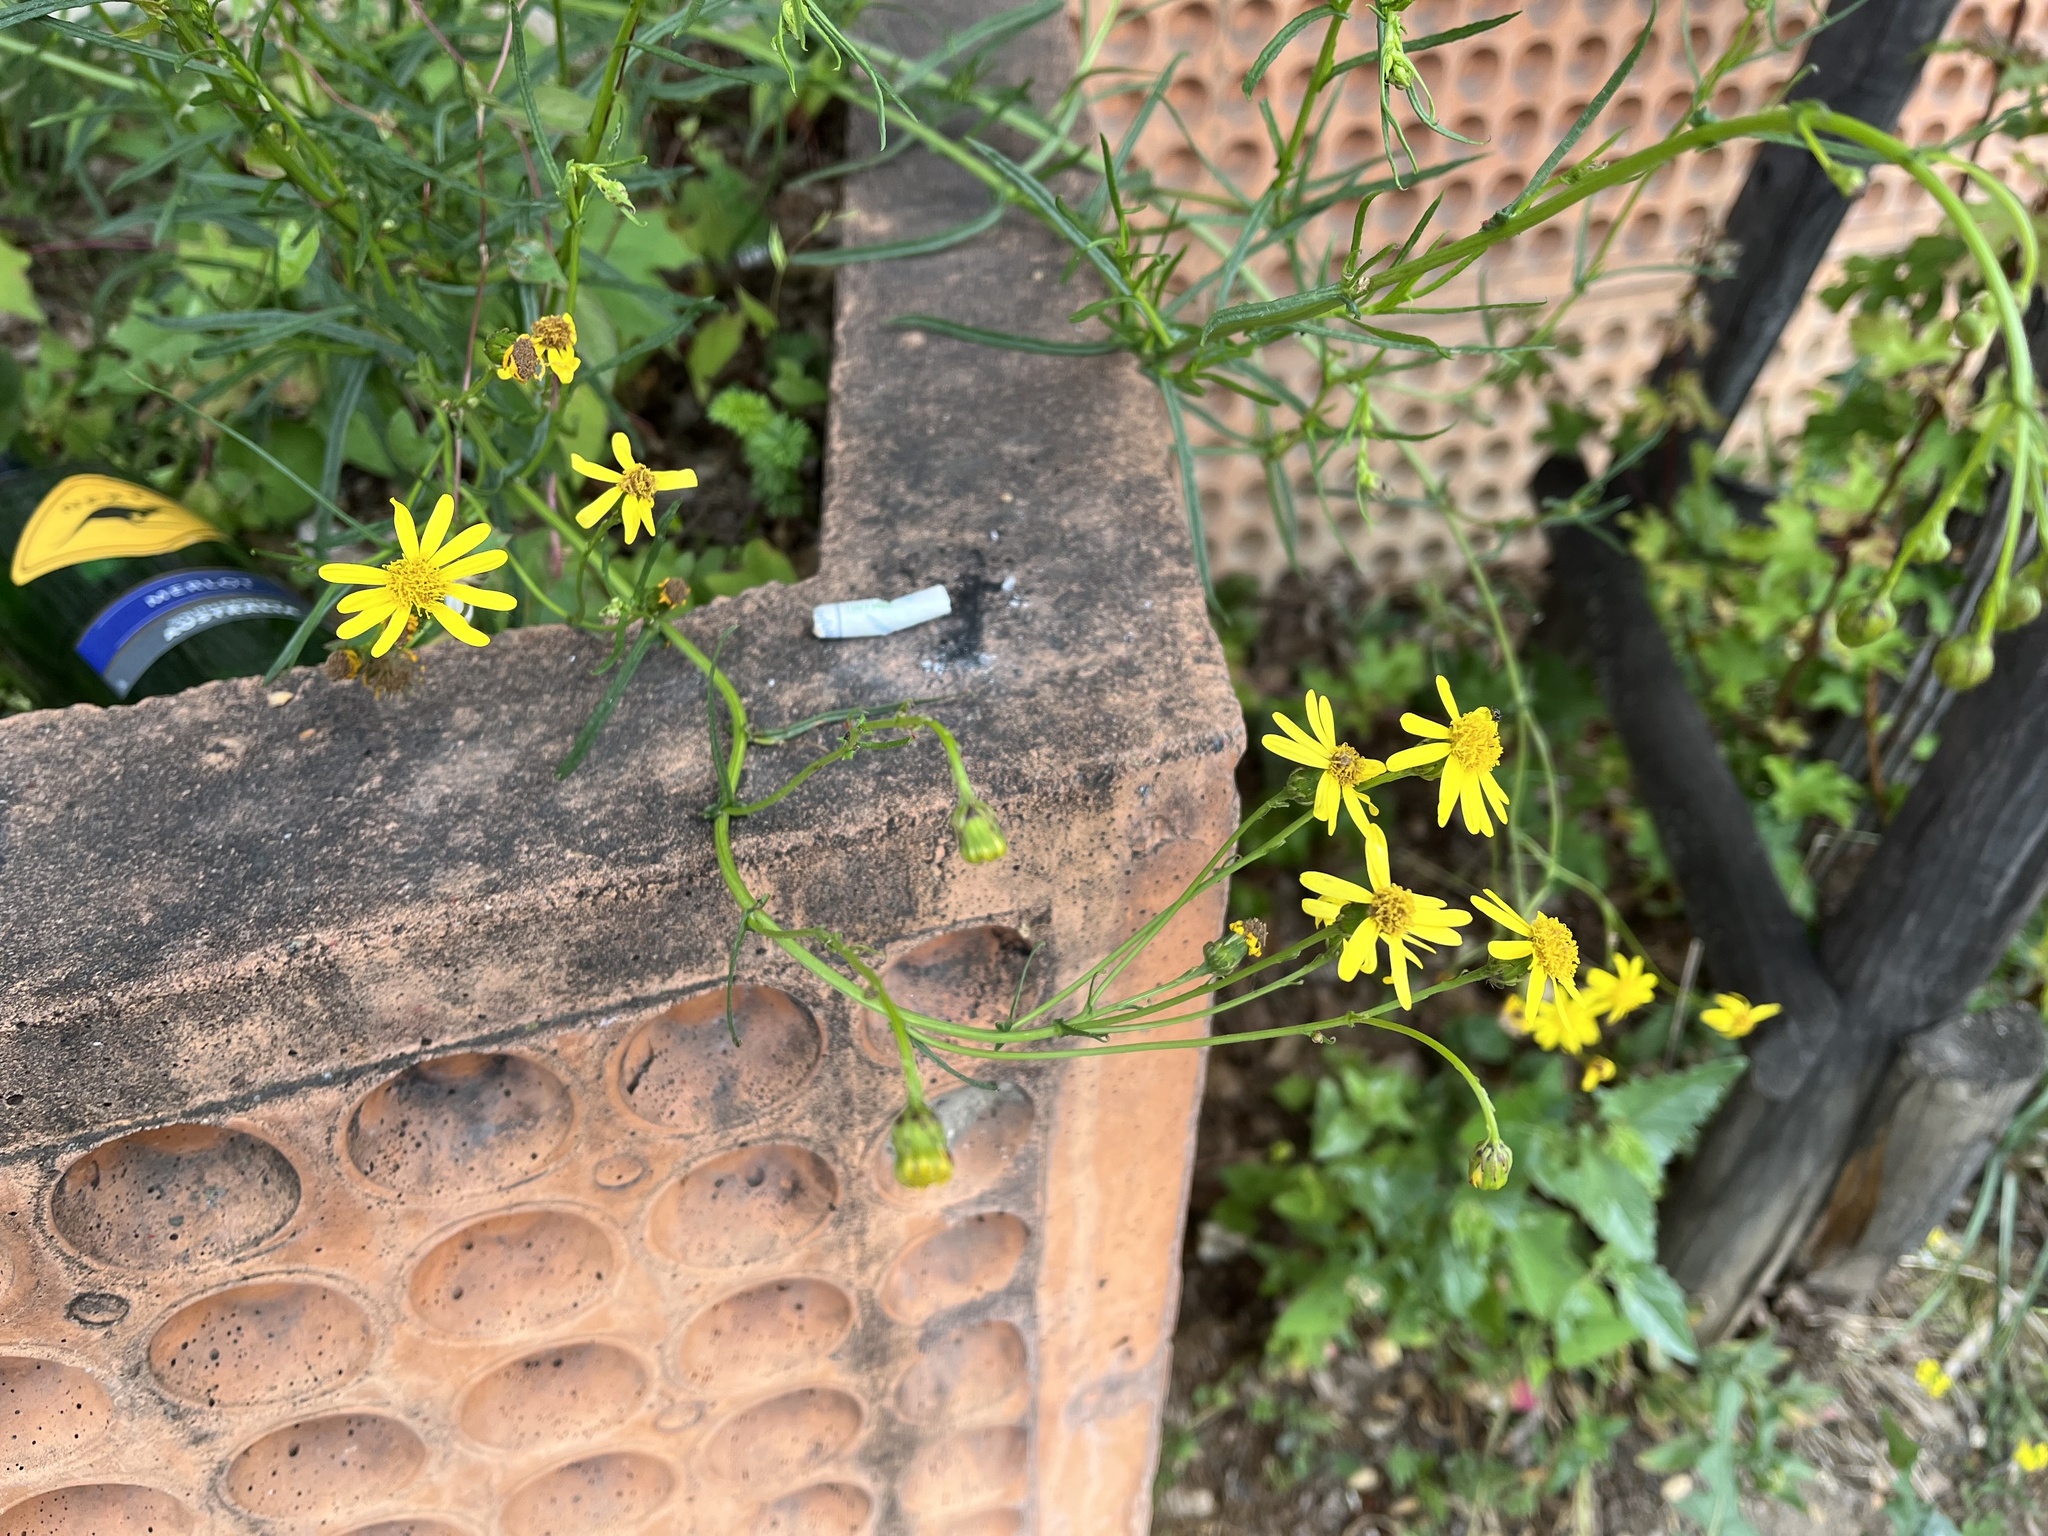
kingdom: Plantae
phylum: Tracheophyta
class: Magnoliopsida
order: Asterales
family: Asteraceae
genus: Senecio
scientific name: Senecio inaequidens
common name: Narrow-leaved ragwort
